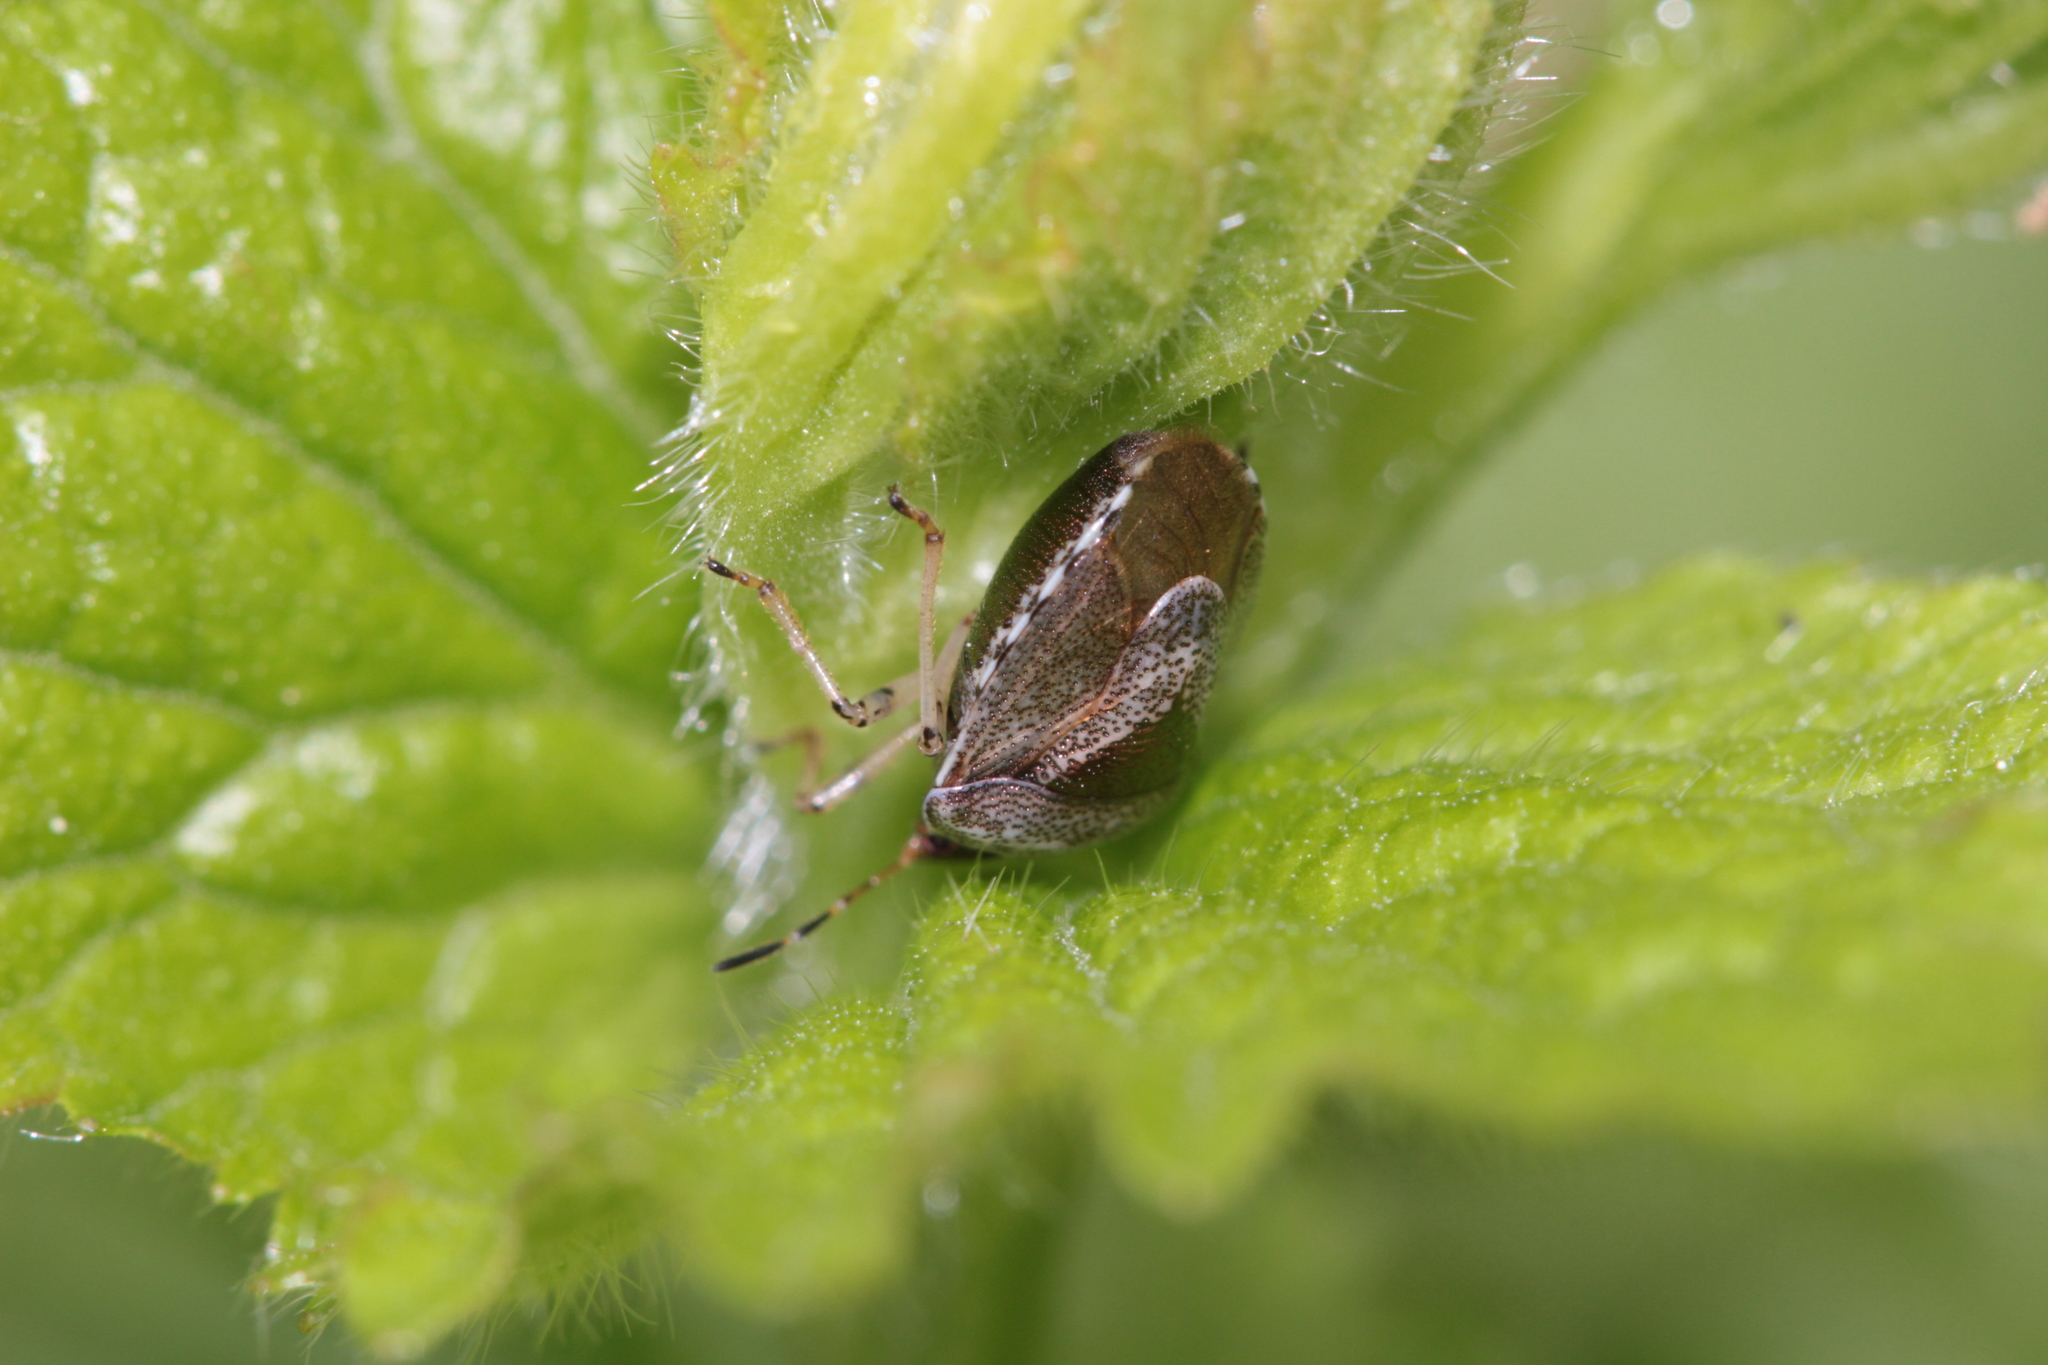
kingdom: Animalia
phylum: Arthropoda
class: Insecta
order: Hemiptera
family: Pentatomidae
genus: Eysarcoris
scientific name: Eysarcoris venustissimus
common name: Woundwort shieldbug
